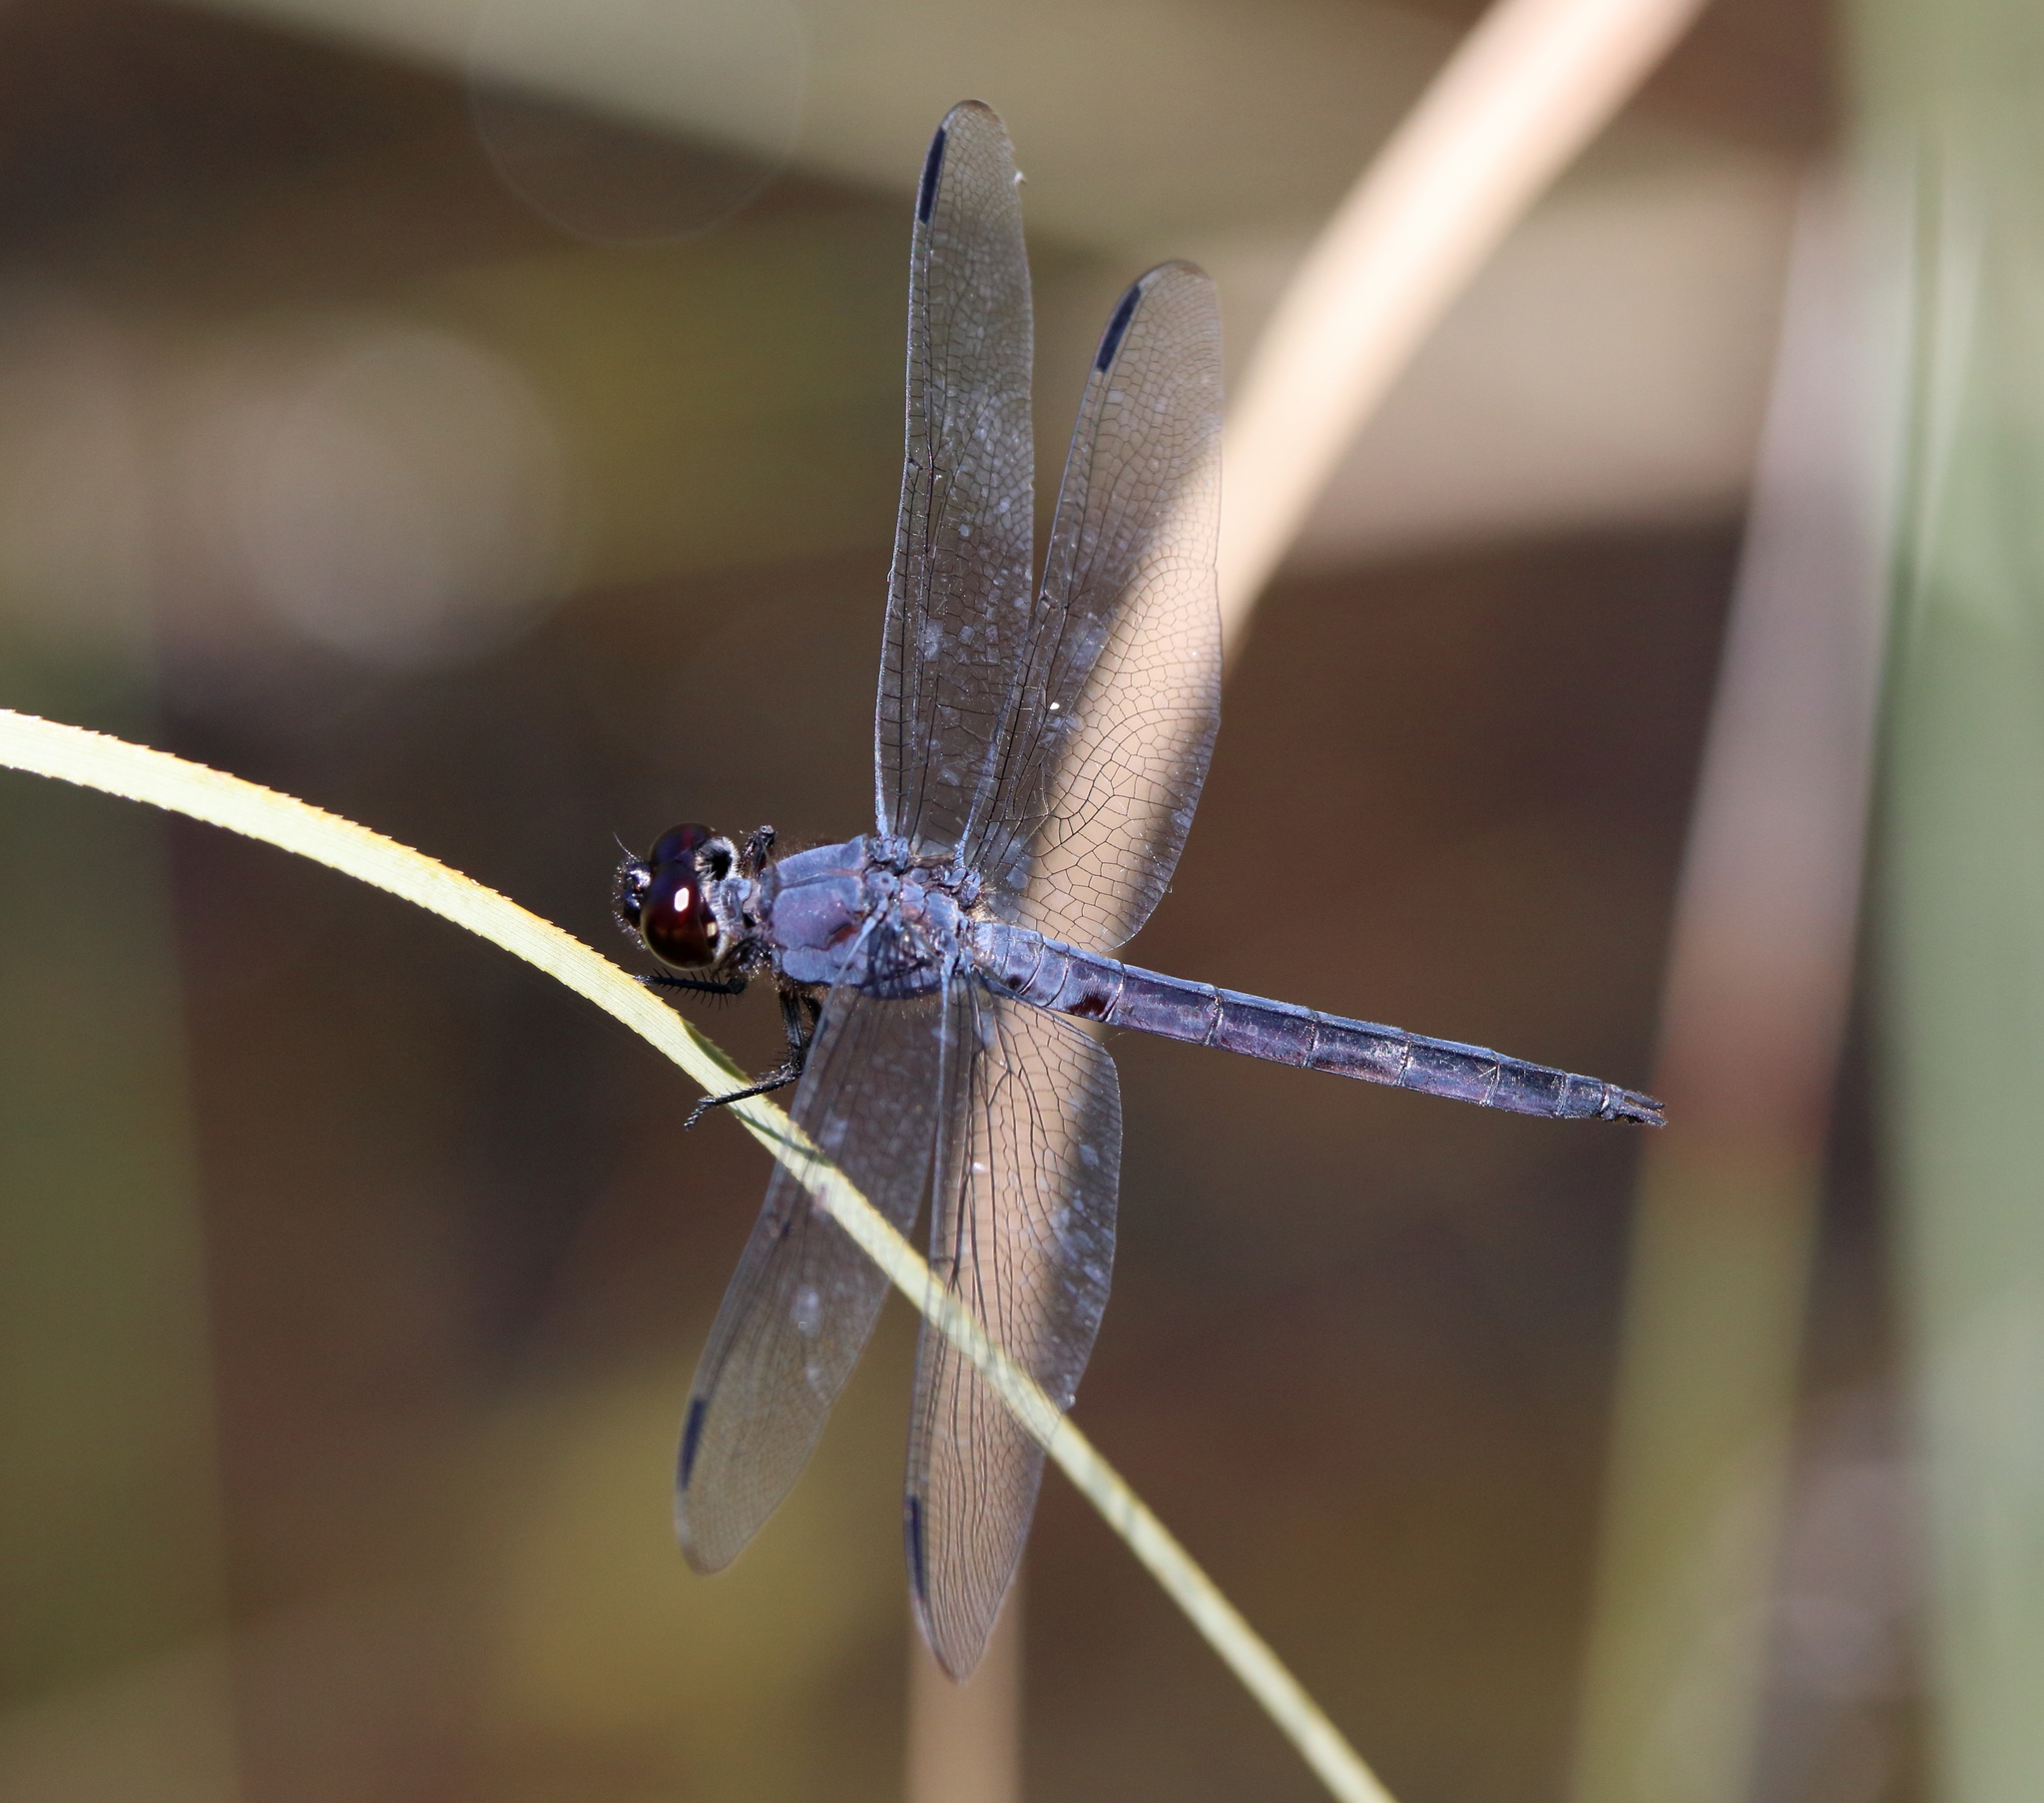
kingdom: Animalia
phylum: Arthropoda
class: Insecta
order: Odonata
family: Libellulidae
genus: Libellula
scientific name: Libellula incesta
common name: Slaty skimmer
